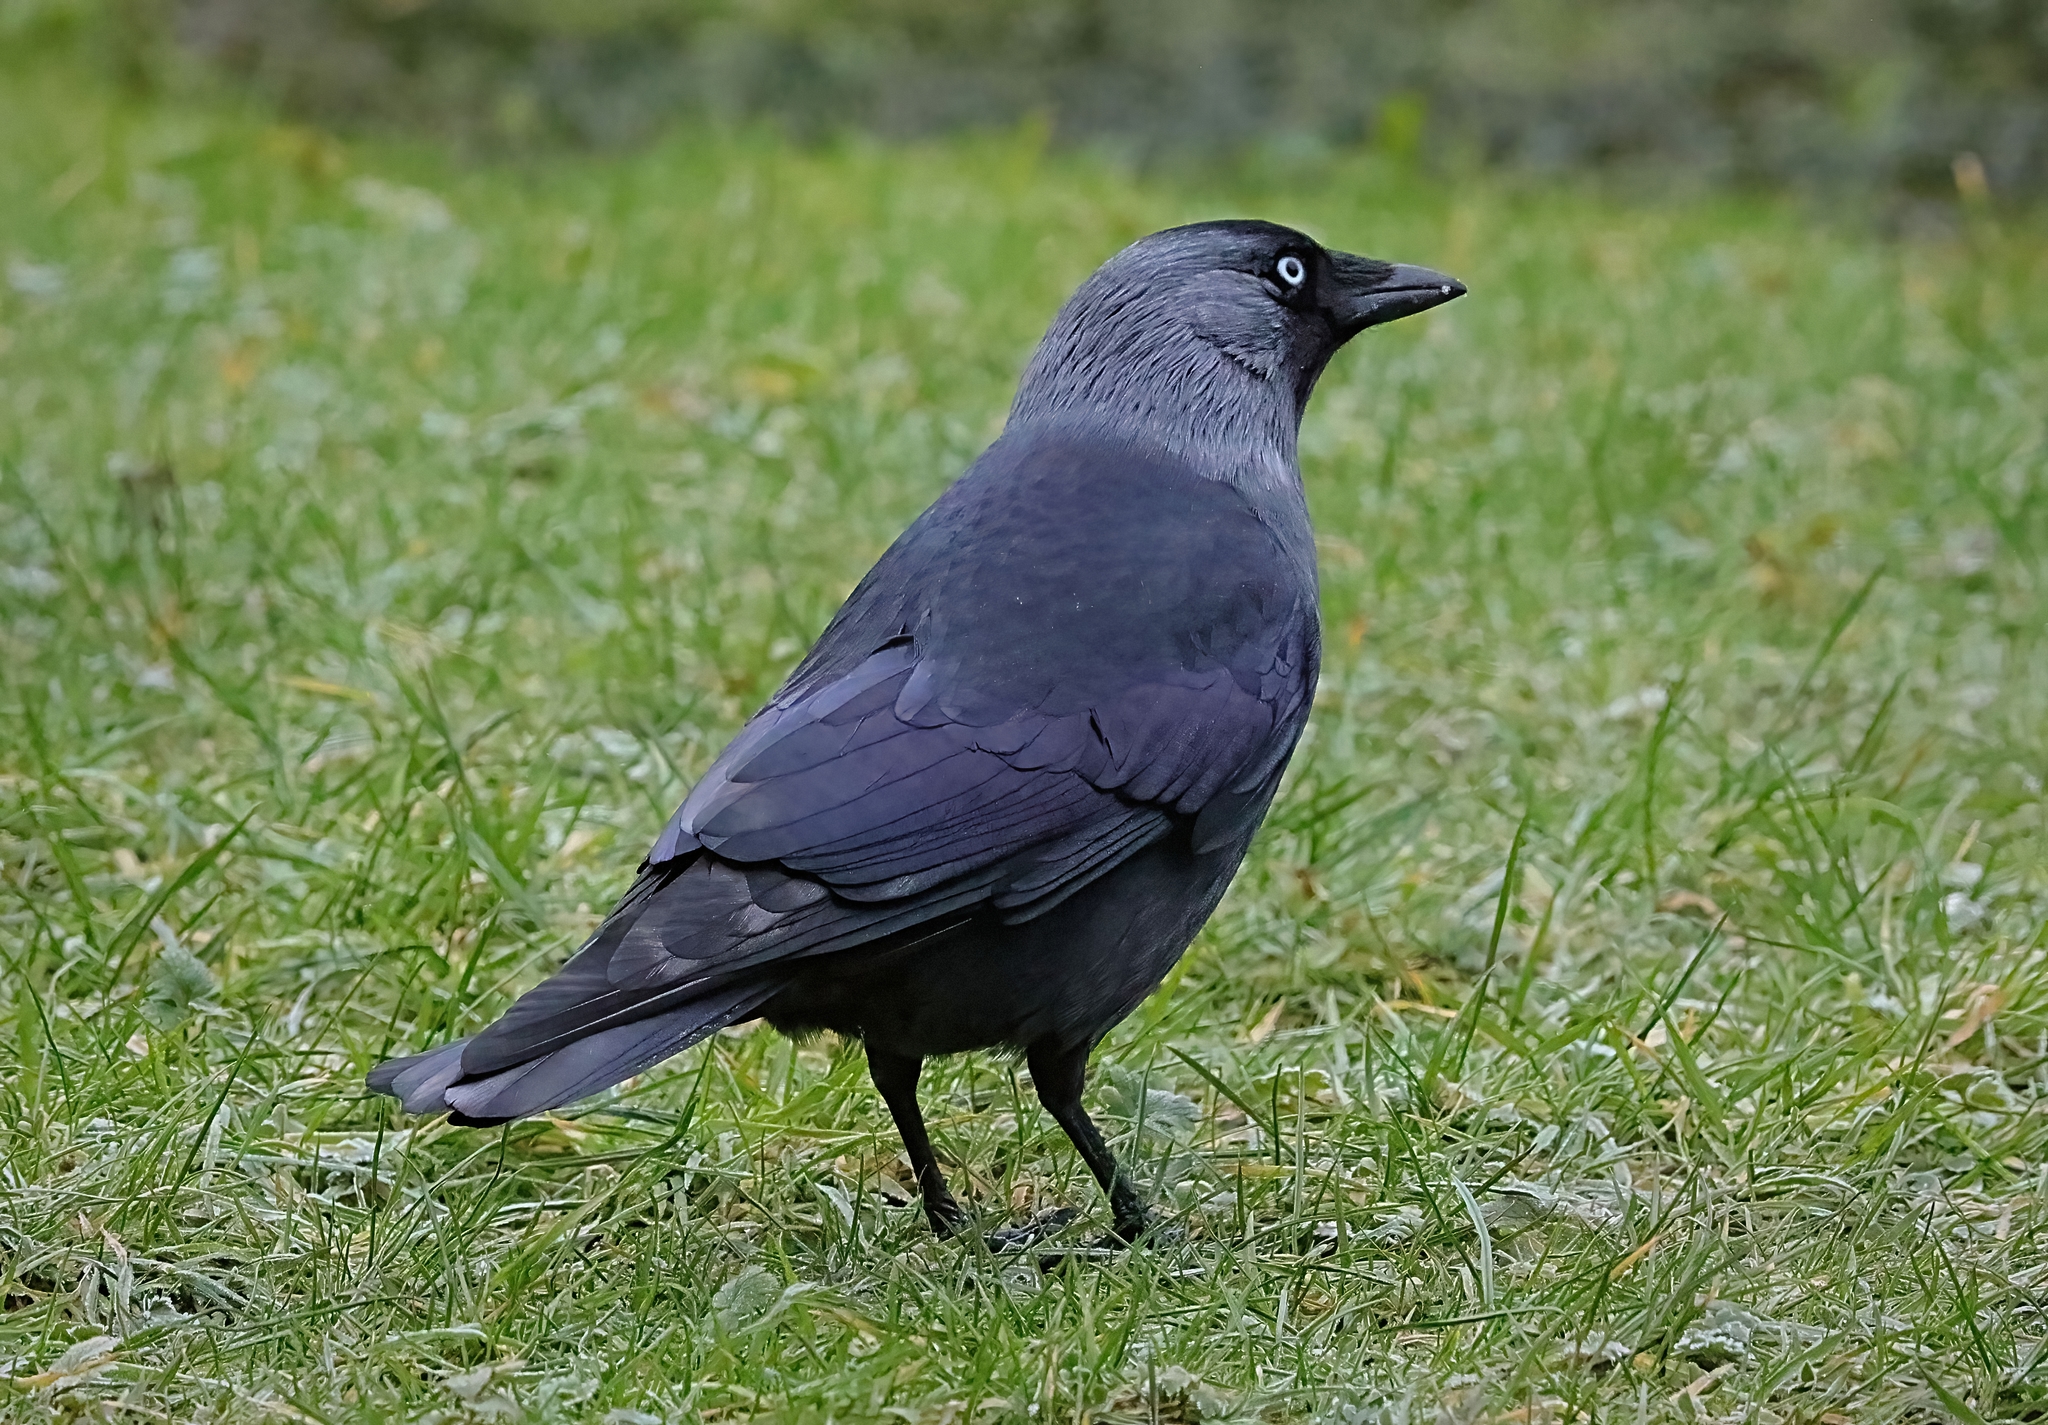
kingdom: Animalia
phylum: Chordata
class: Aves
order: Passeriformes
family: Corvidae
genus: Coloeus
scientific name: Coloeus monedula
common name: Western jackdaw
